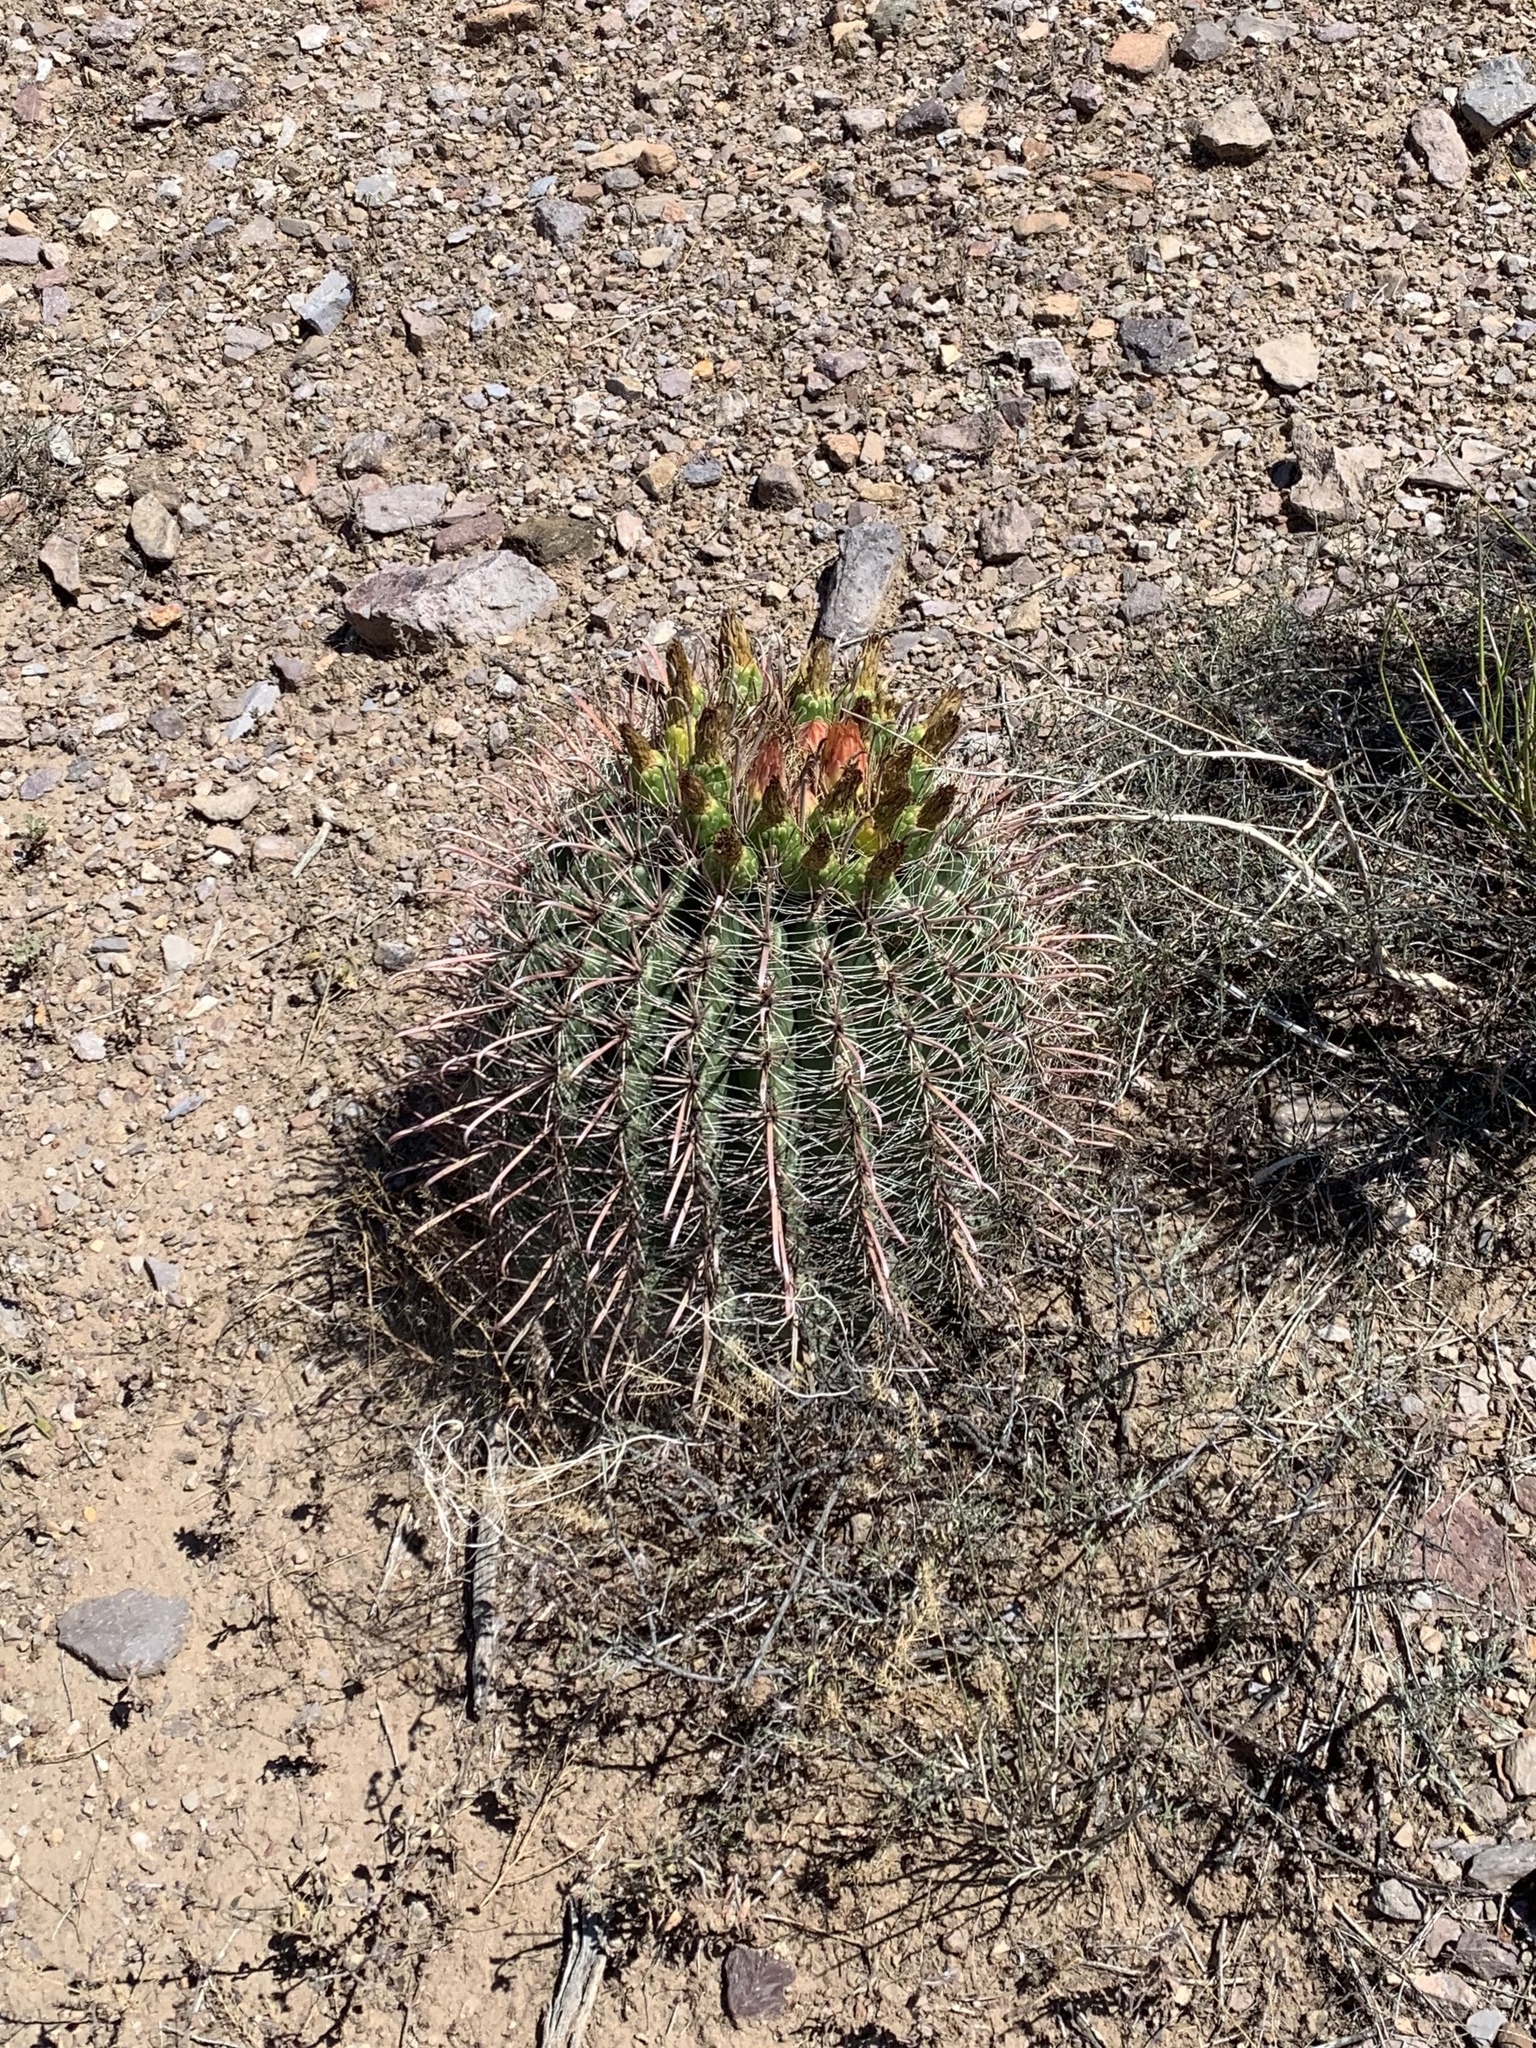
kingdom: Plantae
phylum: Tracheophyta
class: Magnoliopsida
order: Caryophyllales
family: Cactaceae
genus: Ferocactus
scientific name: Ferocactus wislizeni
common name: Candy barrel cactus
